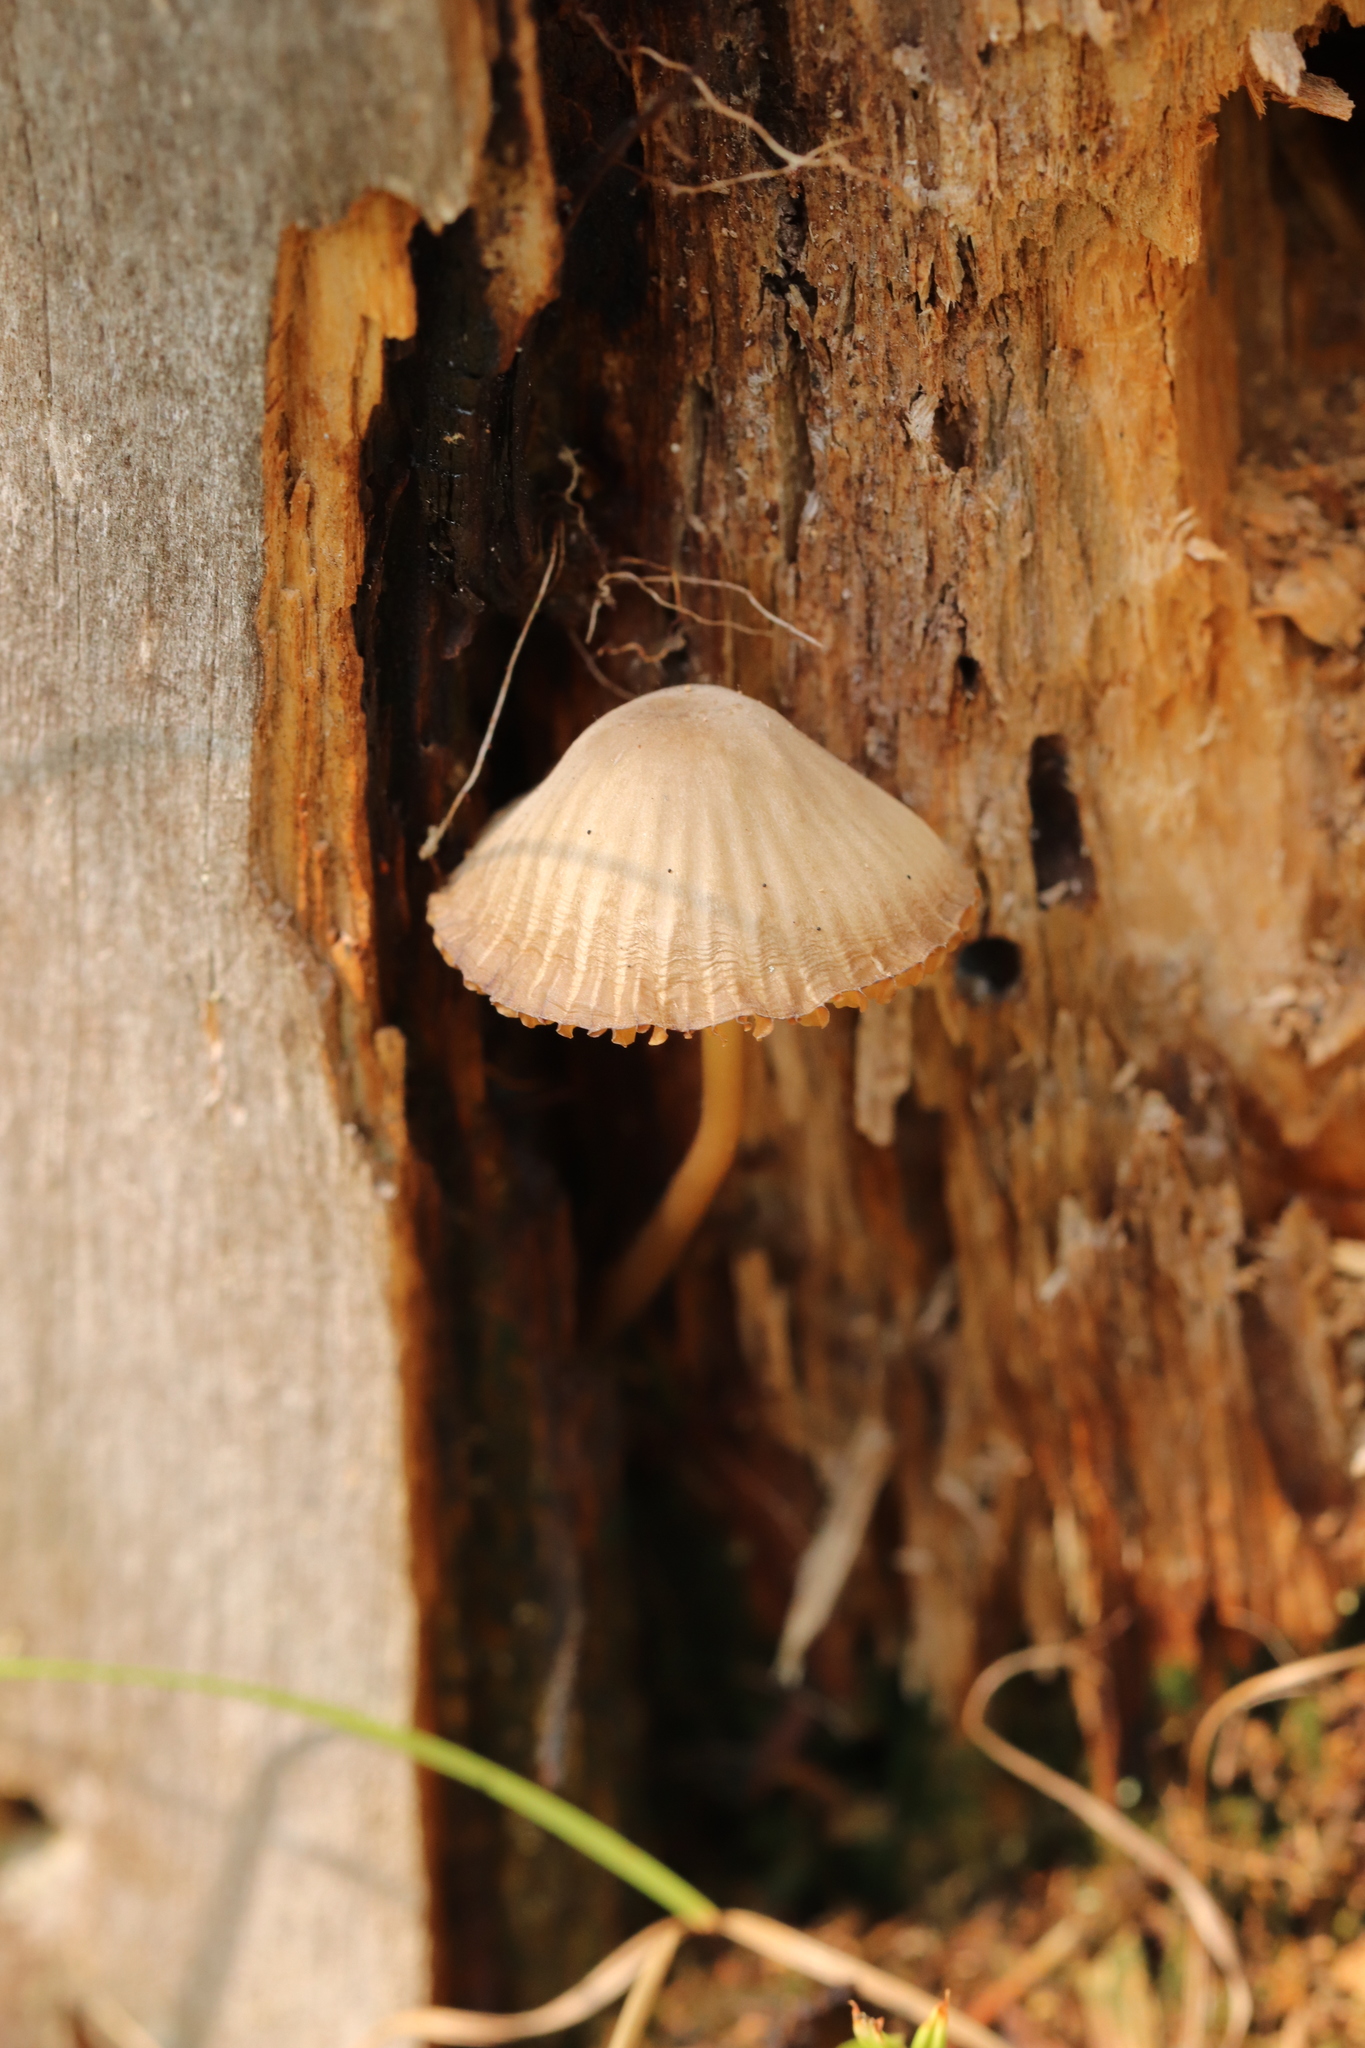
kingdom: Fungi
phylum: Basidiomycota
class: Agaricomycetes
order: Agaricales
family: Mycenaceae
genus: Mycena
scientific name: Mycena viridimarginata
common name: Olive edge bonnet
